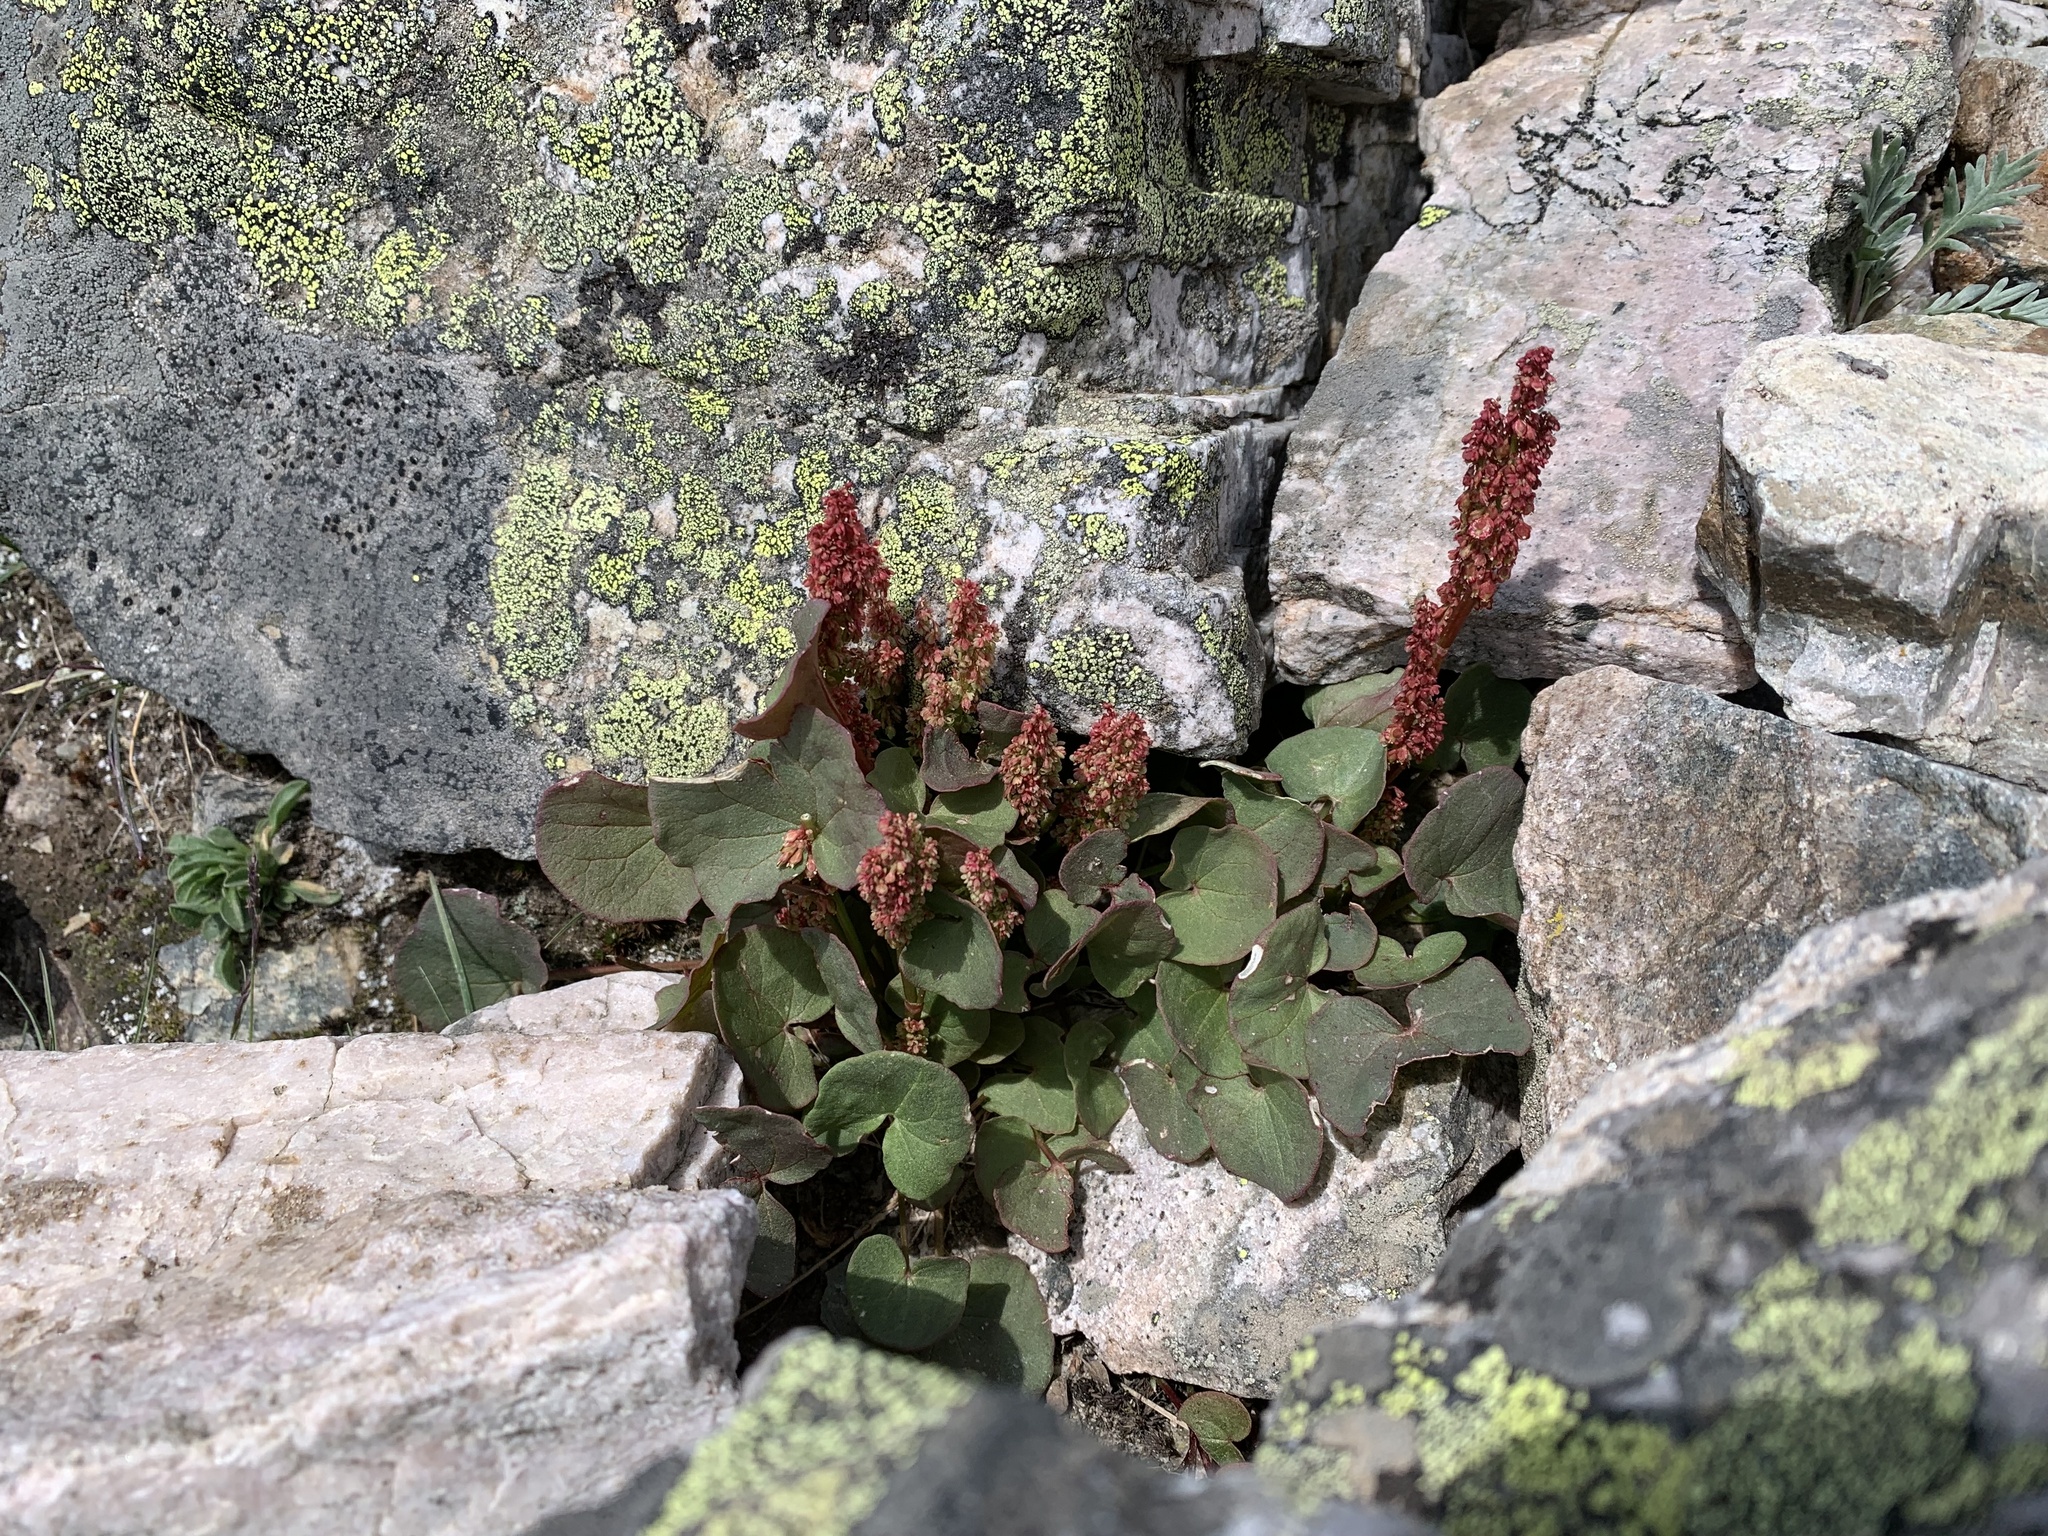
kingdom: Plantae
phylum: Tracheophyta
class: Magnoliopsida
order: Caryophyllales
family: Polygonaceae
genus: Oxyria
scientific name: Oxyria digyna
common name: Alpine mountain-sorrel
